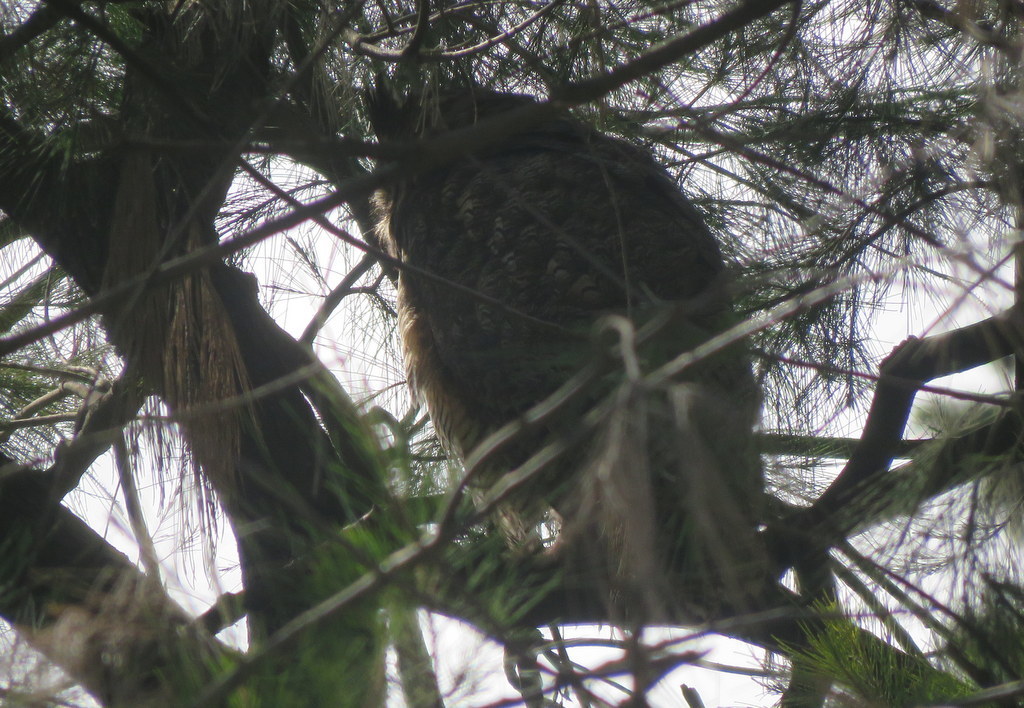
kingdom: Animalia
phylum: Chordata
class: Aves
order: Strigiformes
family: Strigidae
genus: Bubo
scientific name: Bubo virginianus
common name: Great horned owl
